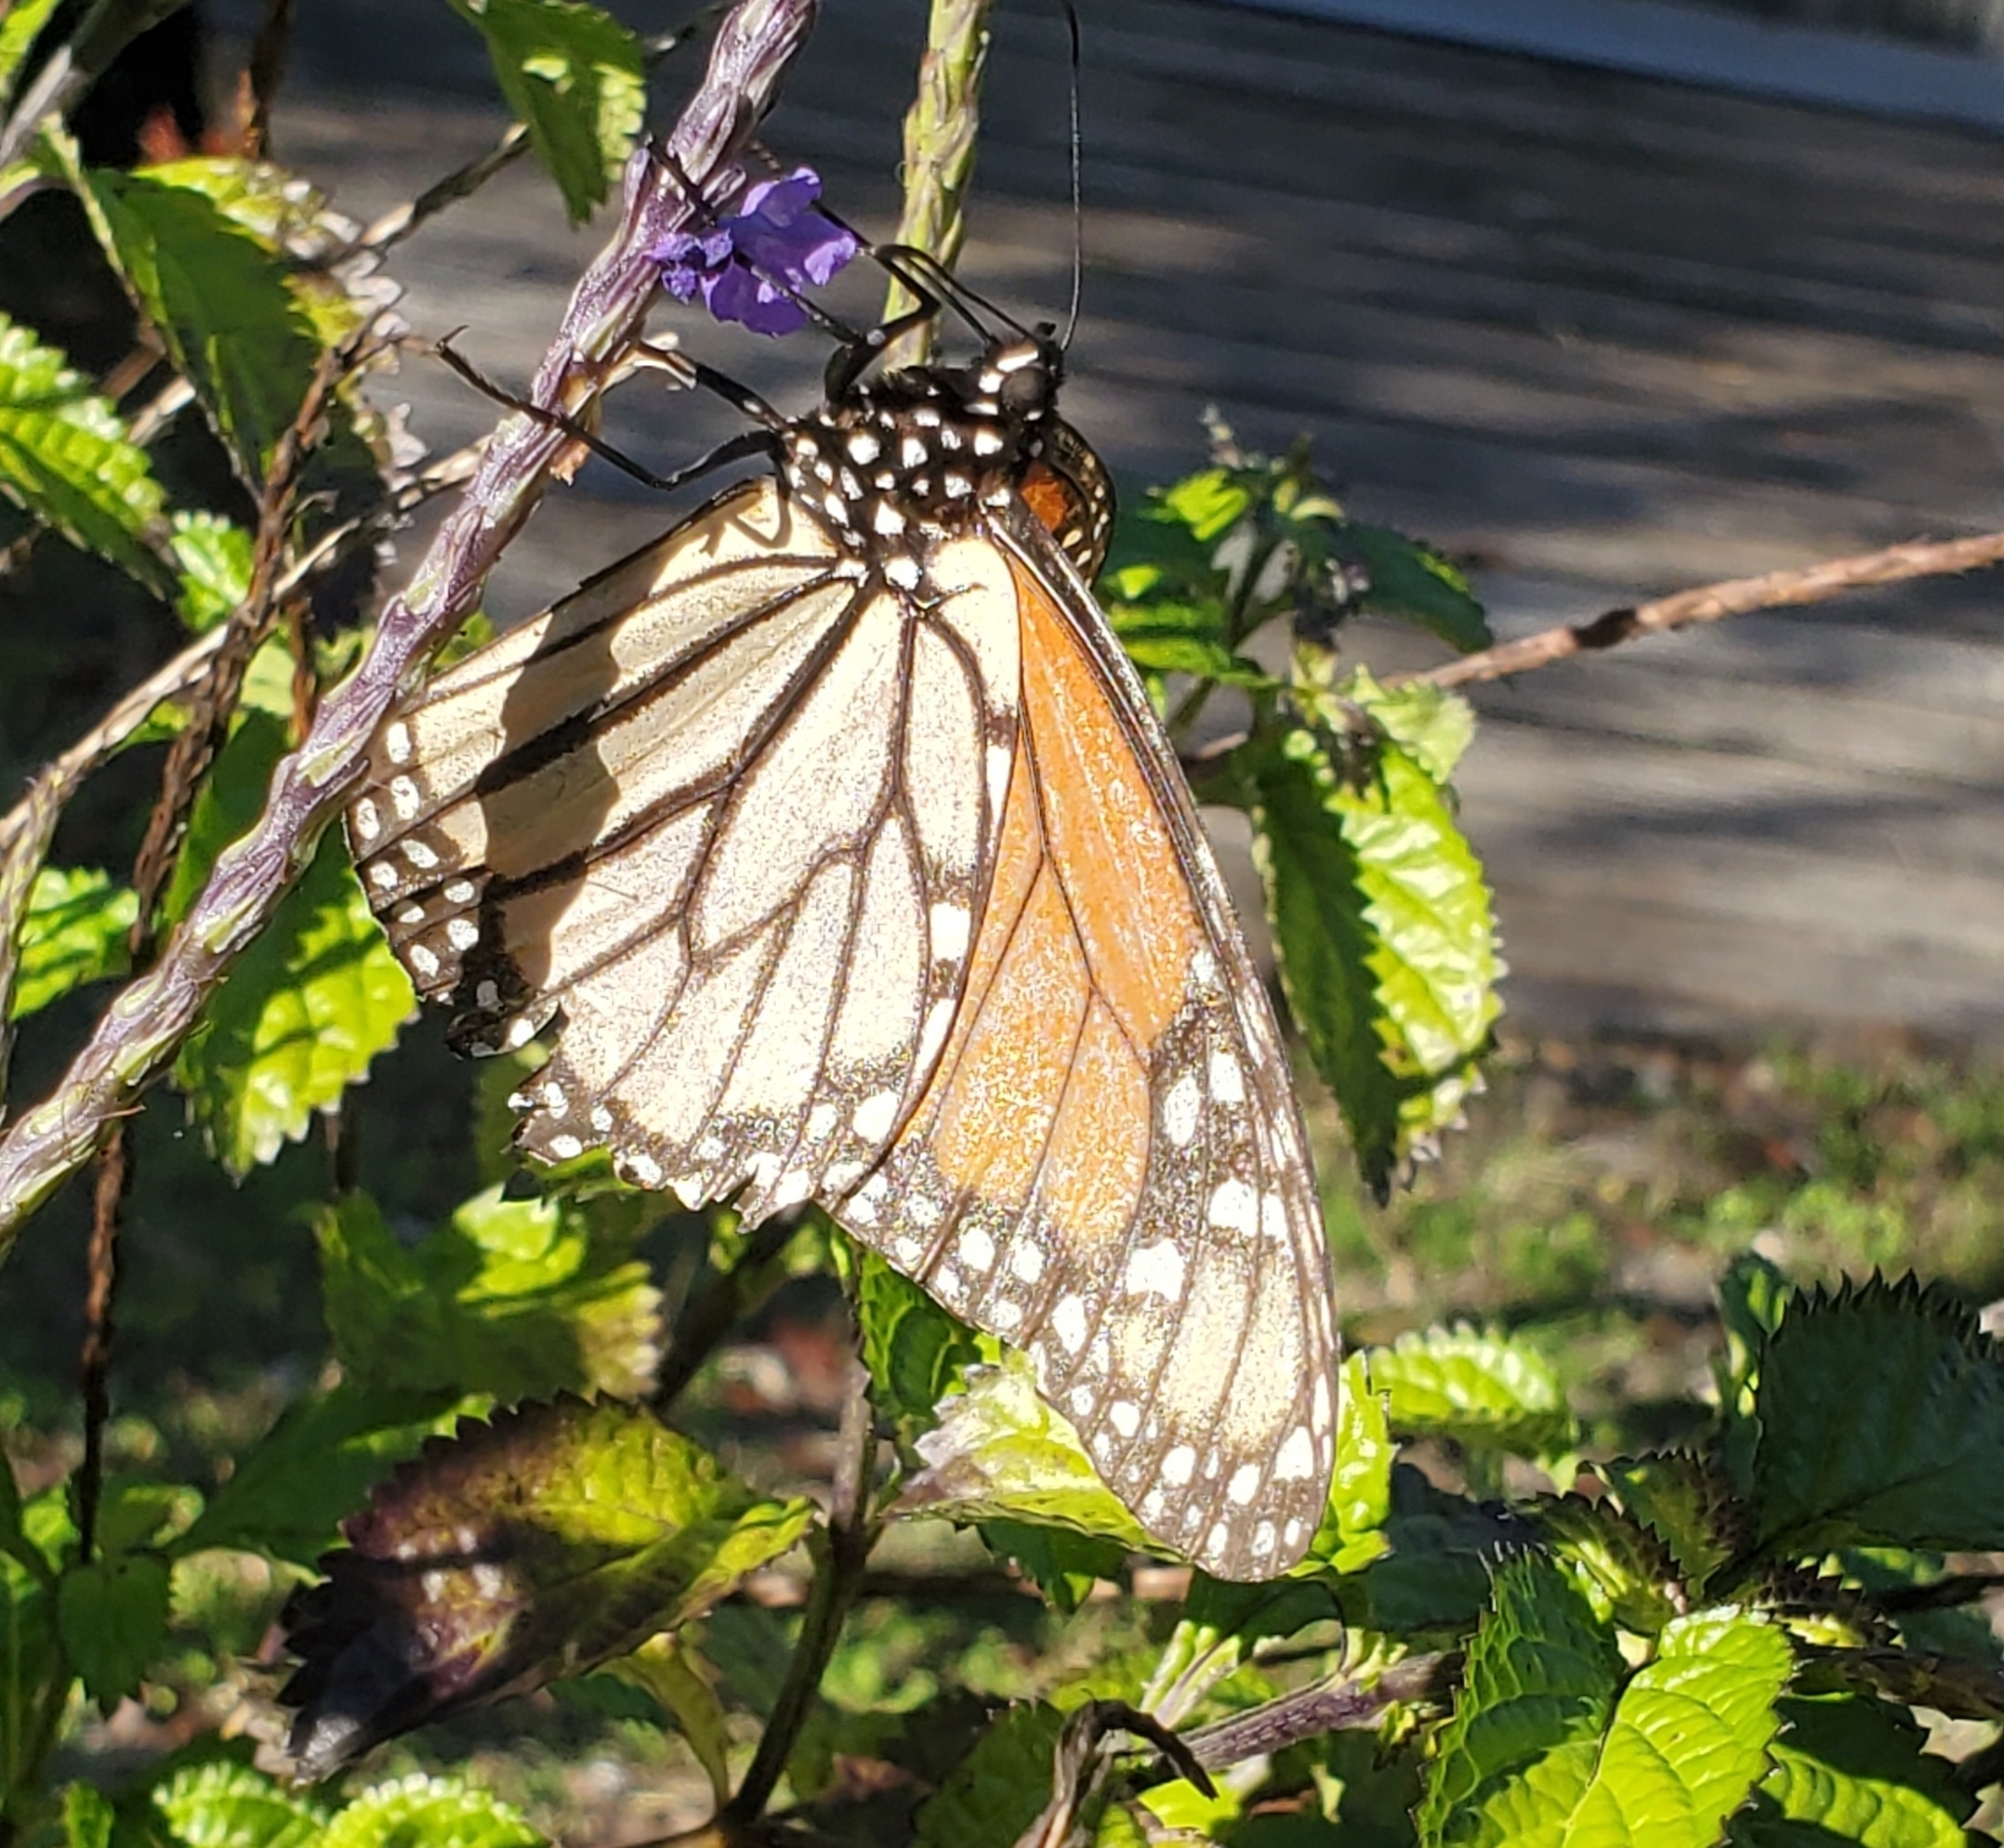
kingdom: Animalia
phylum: Arthropoda
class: Insecta
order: Lepidoptera
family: Nymphalidae
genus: Danaus
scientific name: Danaus plexippus
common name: Monarch
